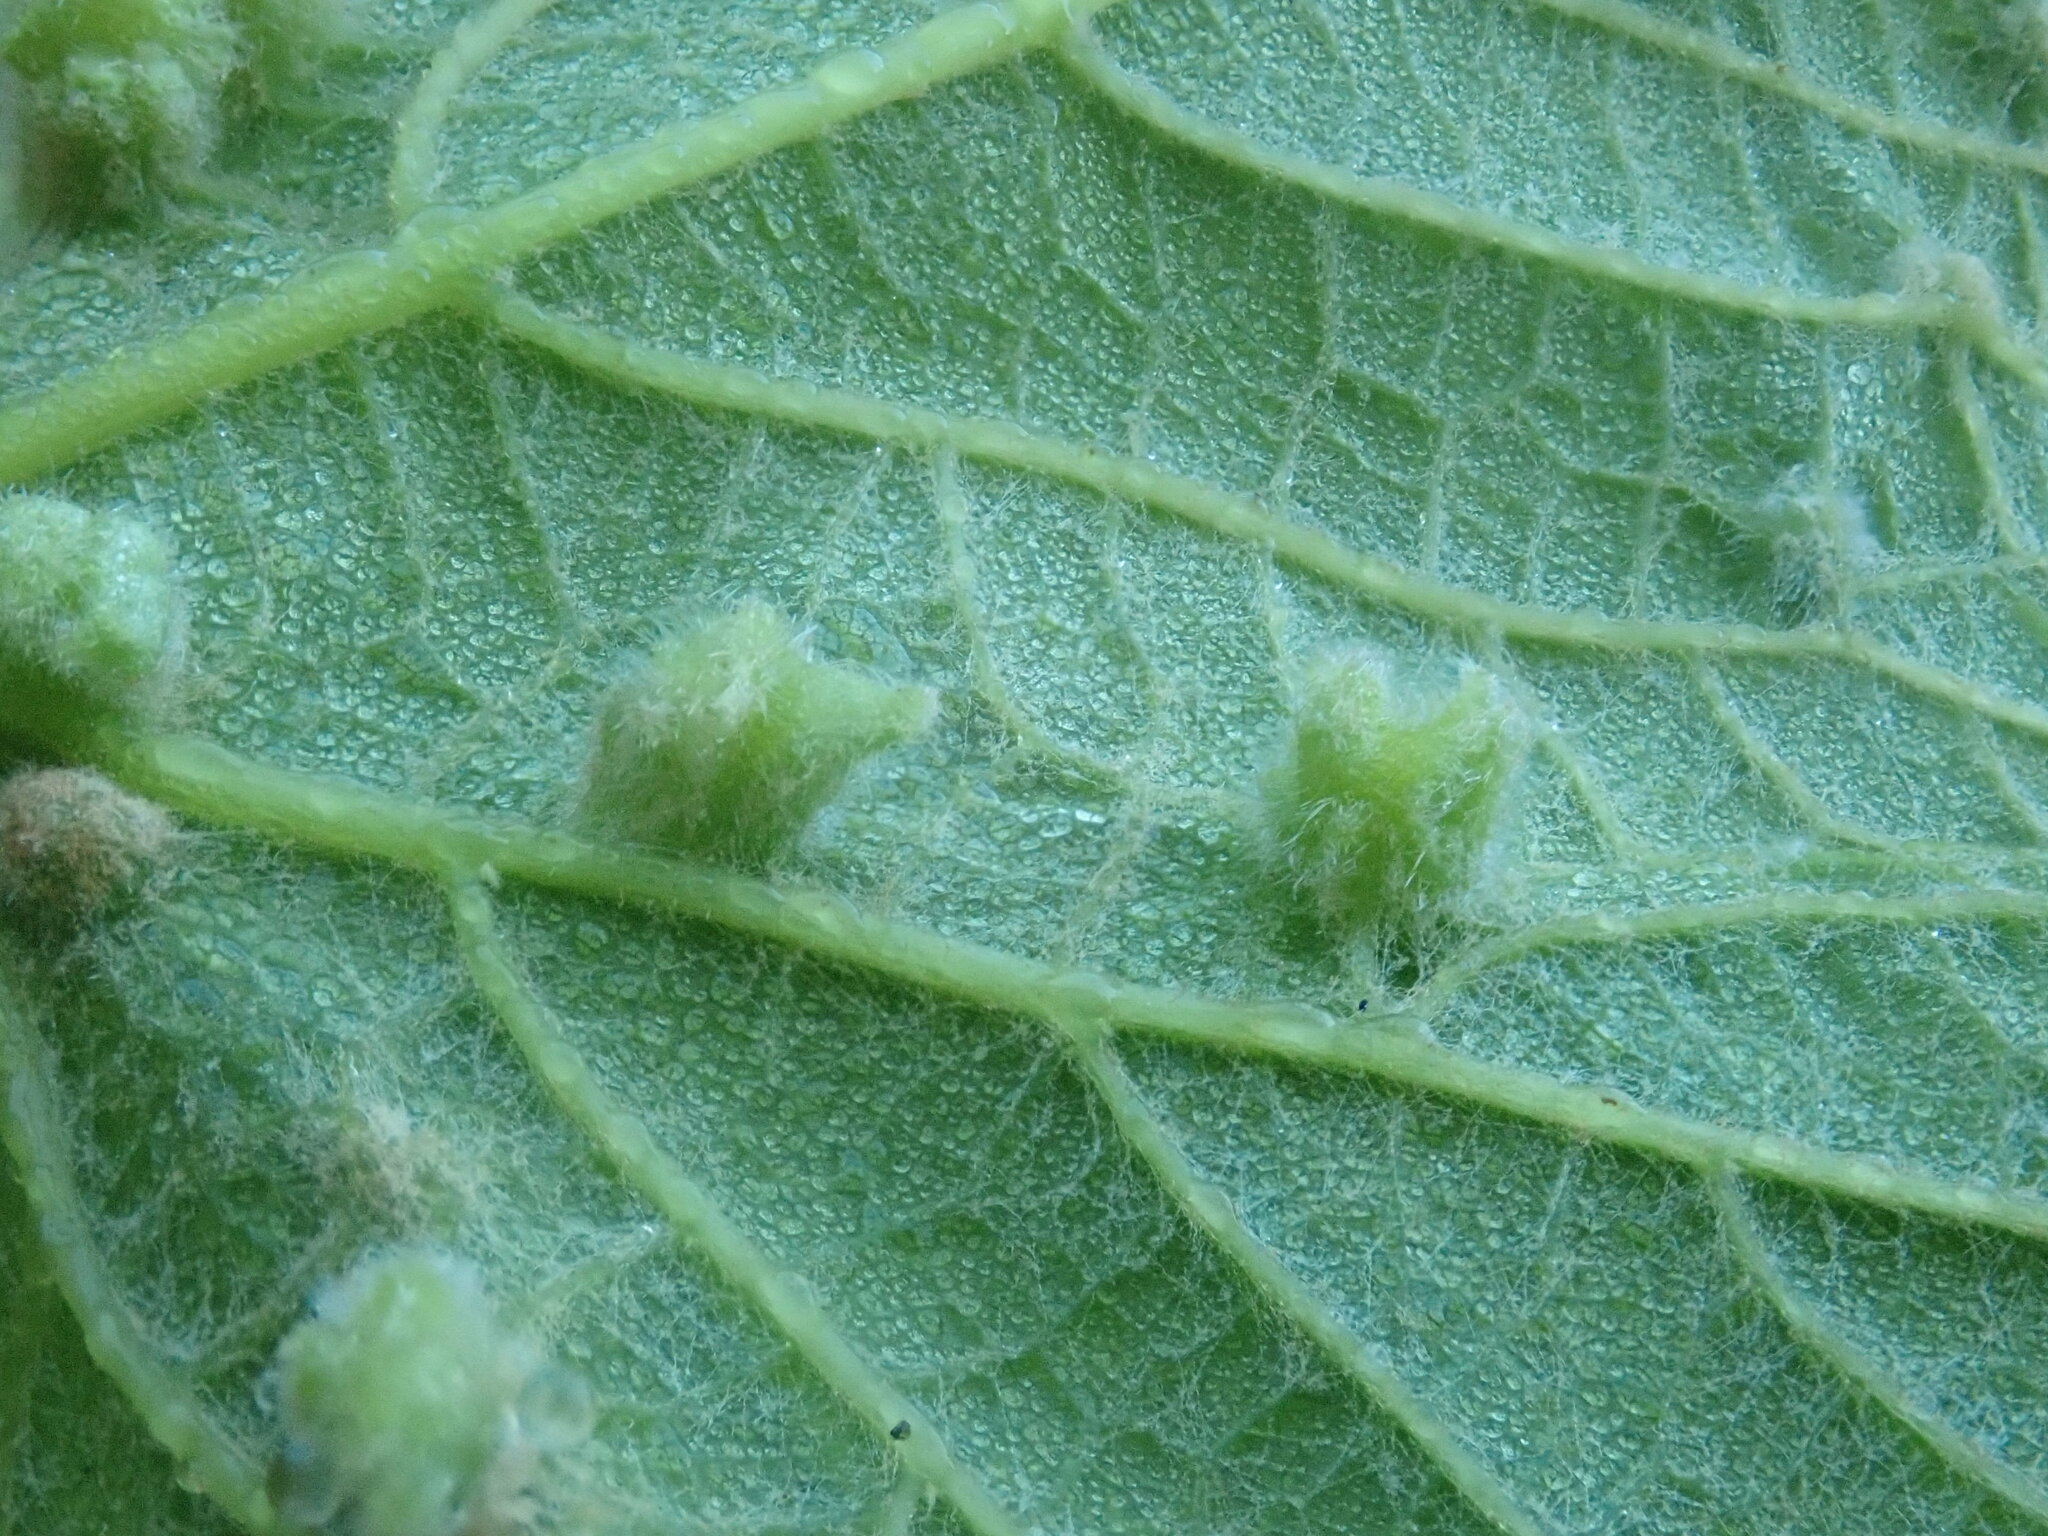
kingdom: Animalia
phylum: Arthropoda
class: Insecta
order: Hemiptera
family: Phylloxeridae
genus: Daktulosphaira
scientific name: Daktulosphaira vitifoliae
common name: Grape phylloxera
